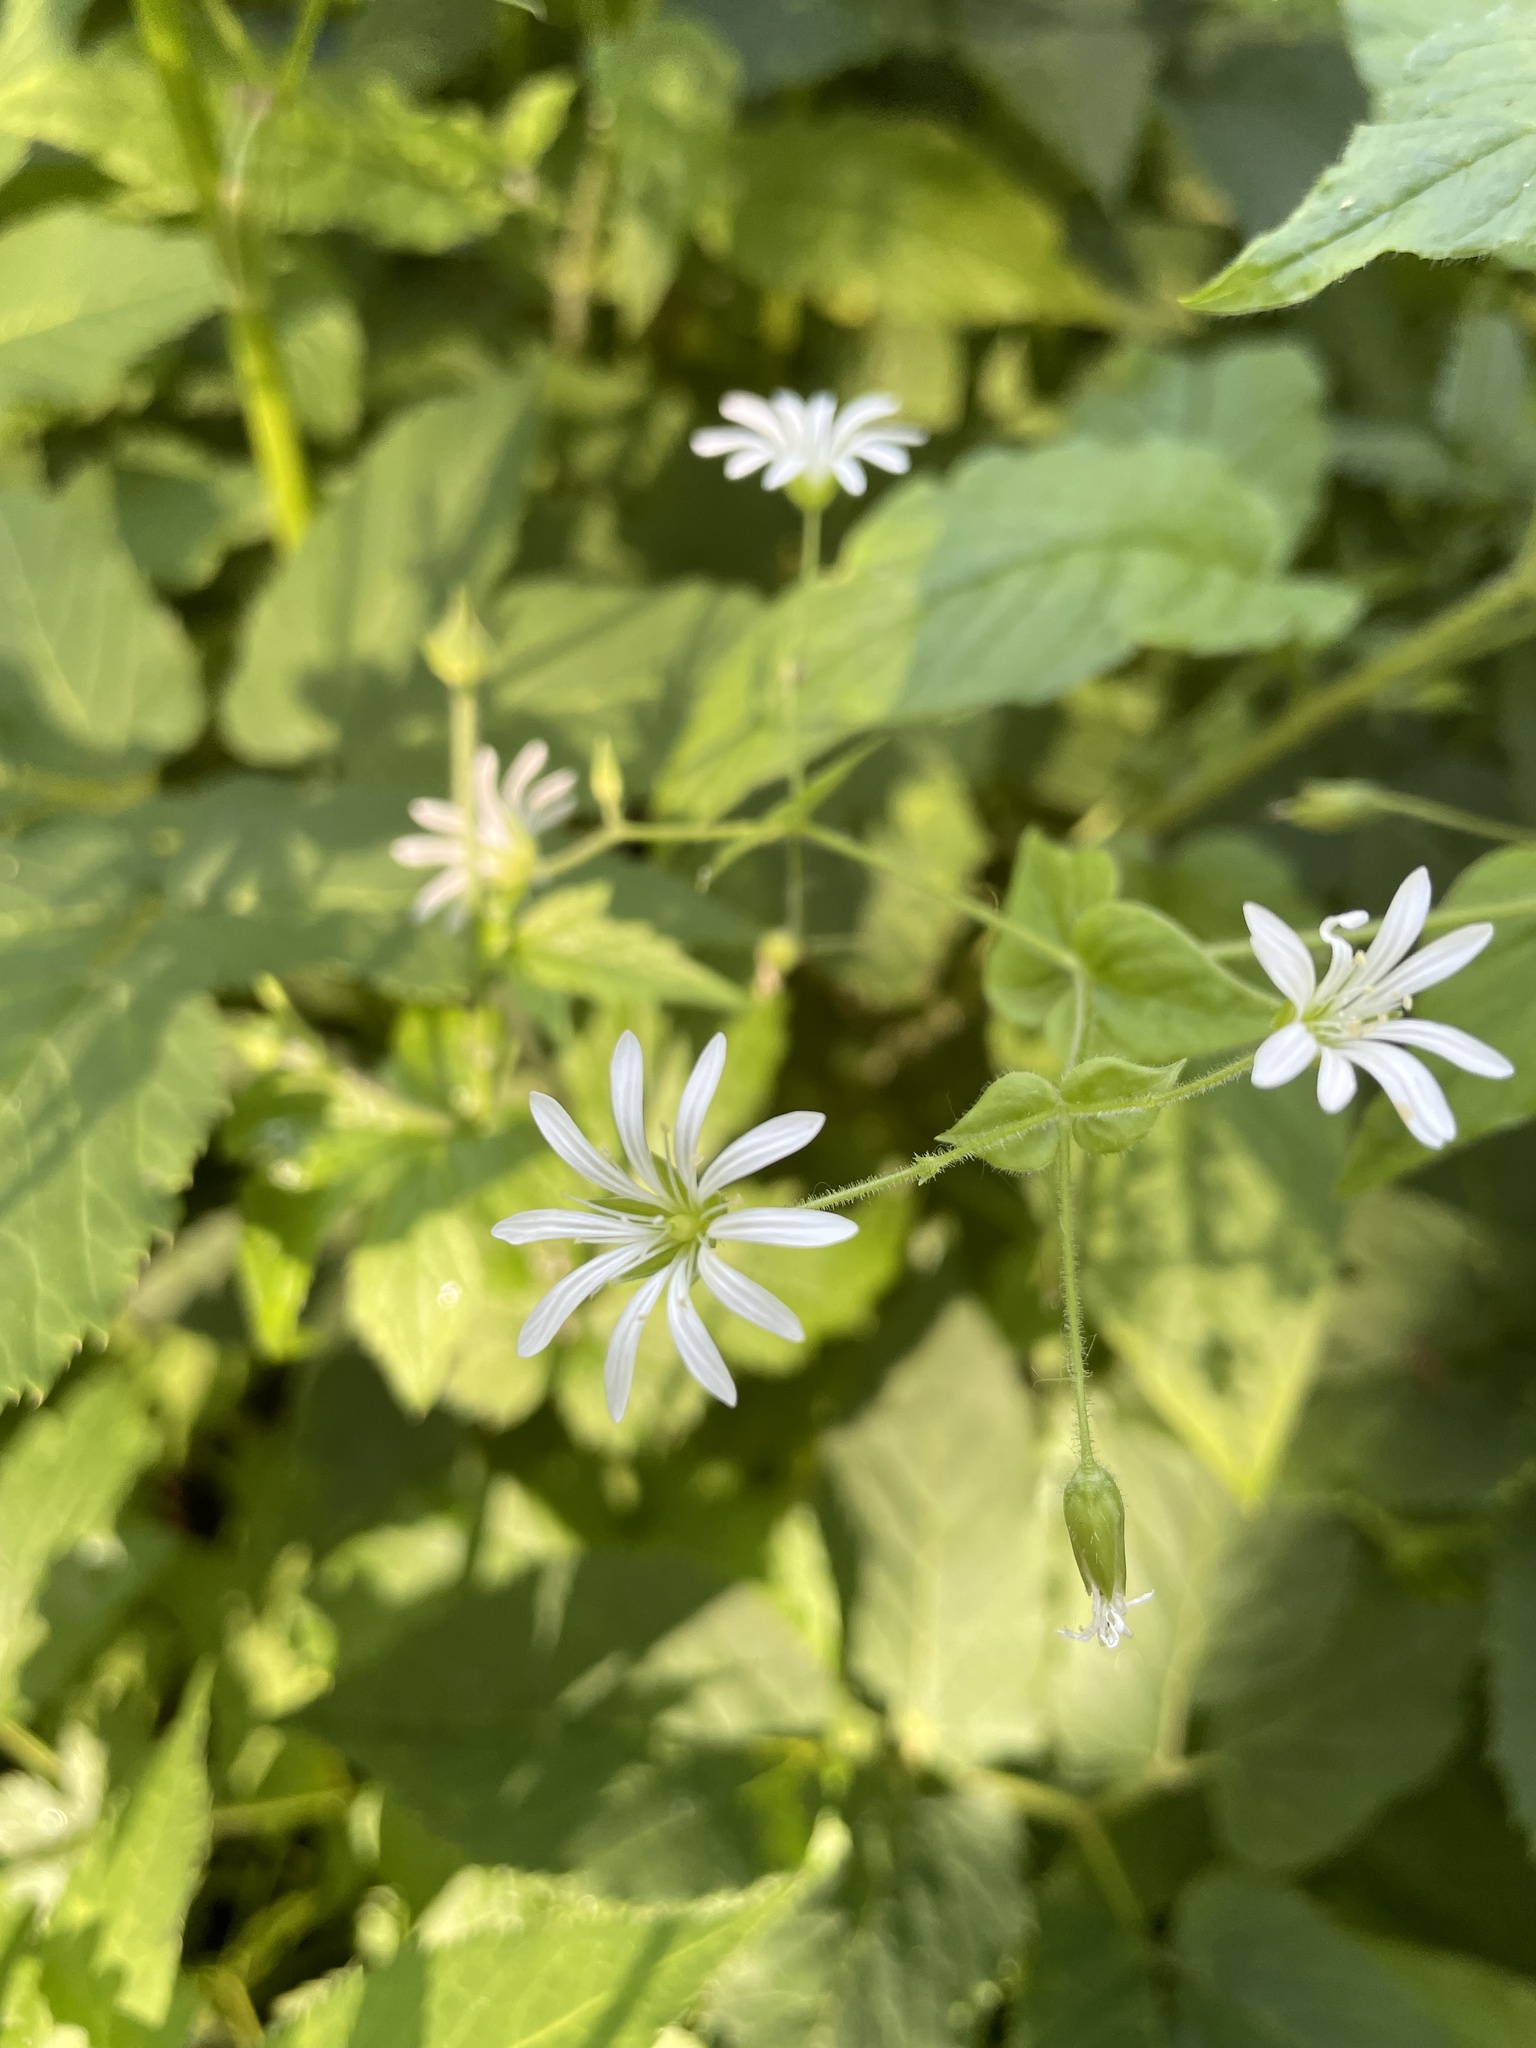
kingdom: Plantae
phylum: Tracheophyta
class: Magnoliopsida
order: Caryophyllales
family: Caryophyllaceae
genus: Stellaria
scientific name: Stellaria nemorum
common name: Wood stitchwort
